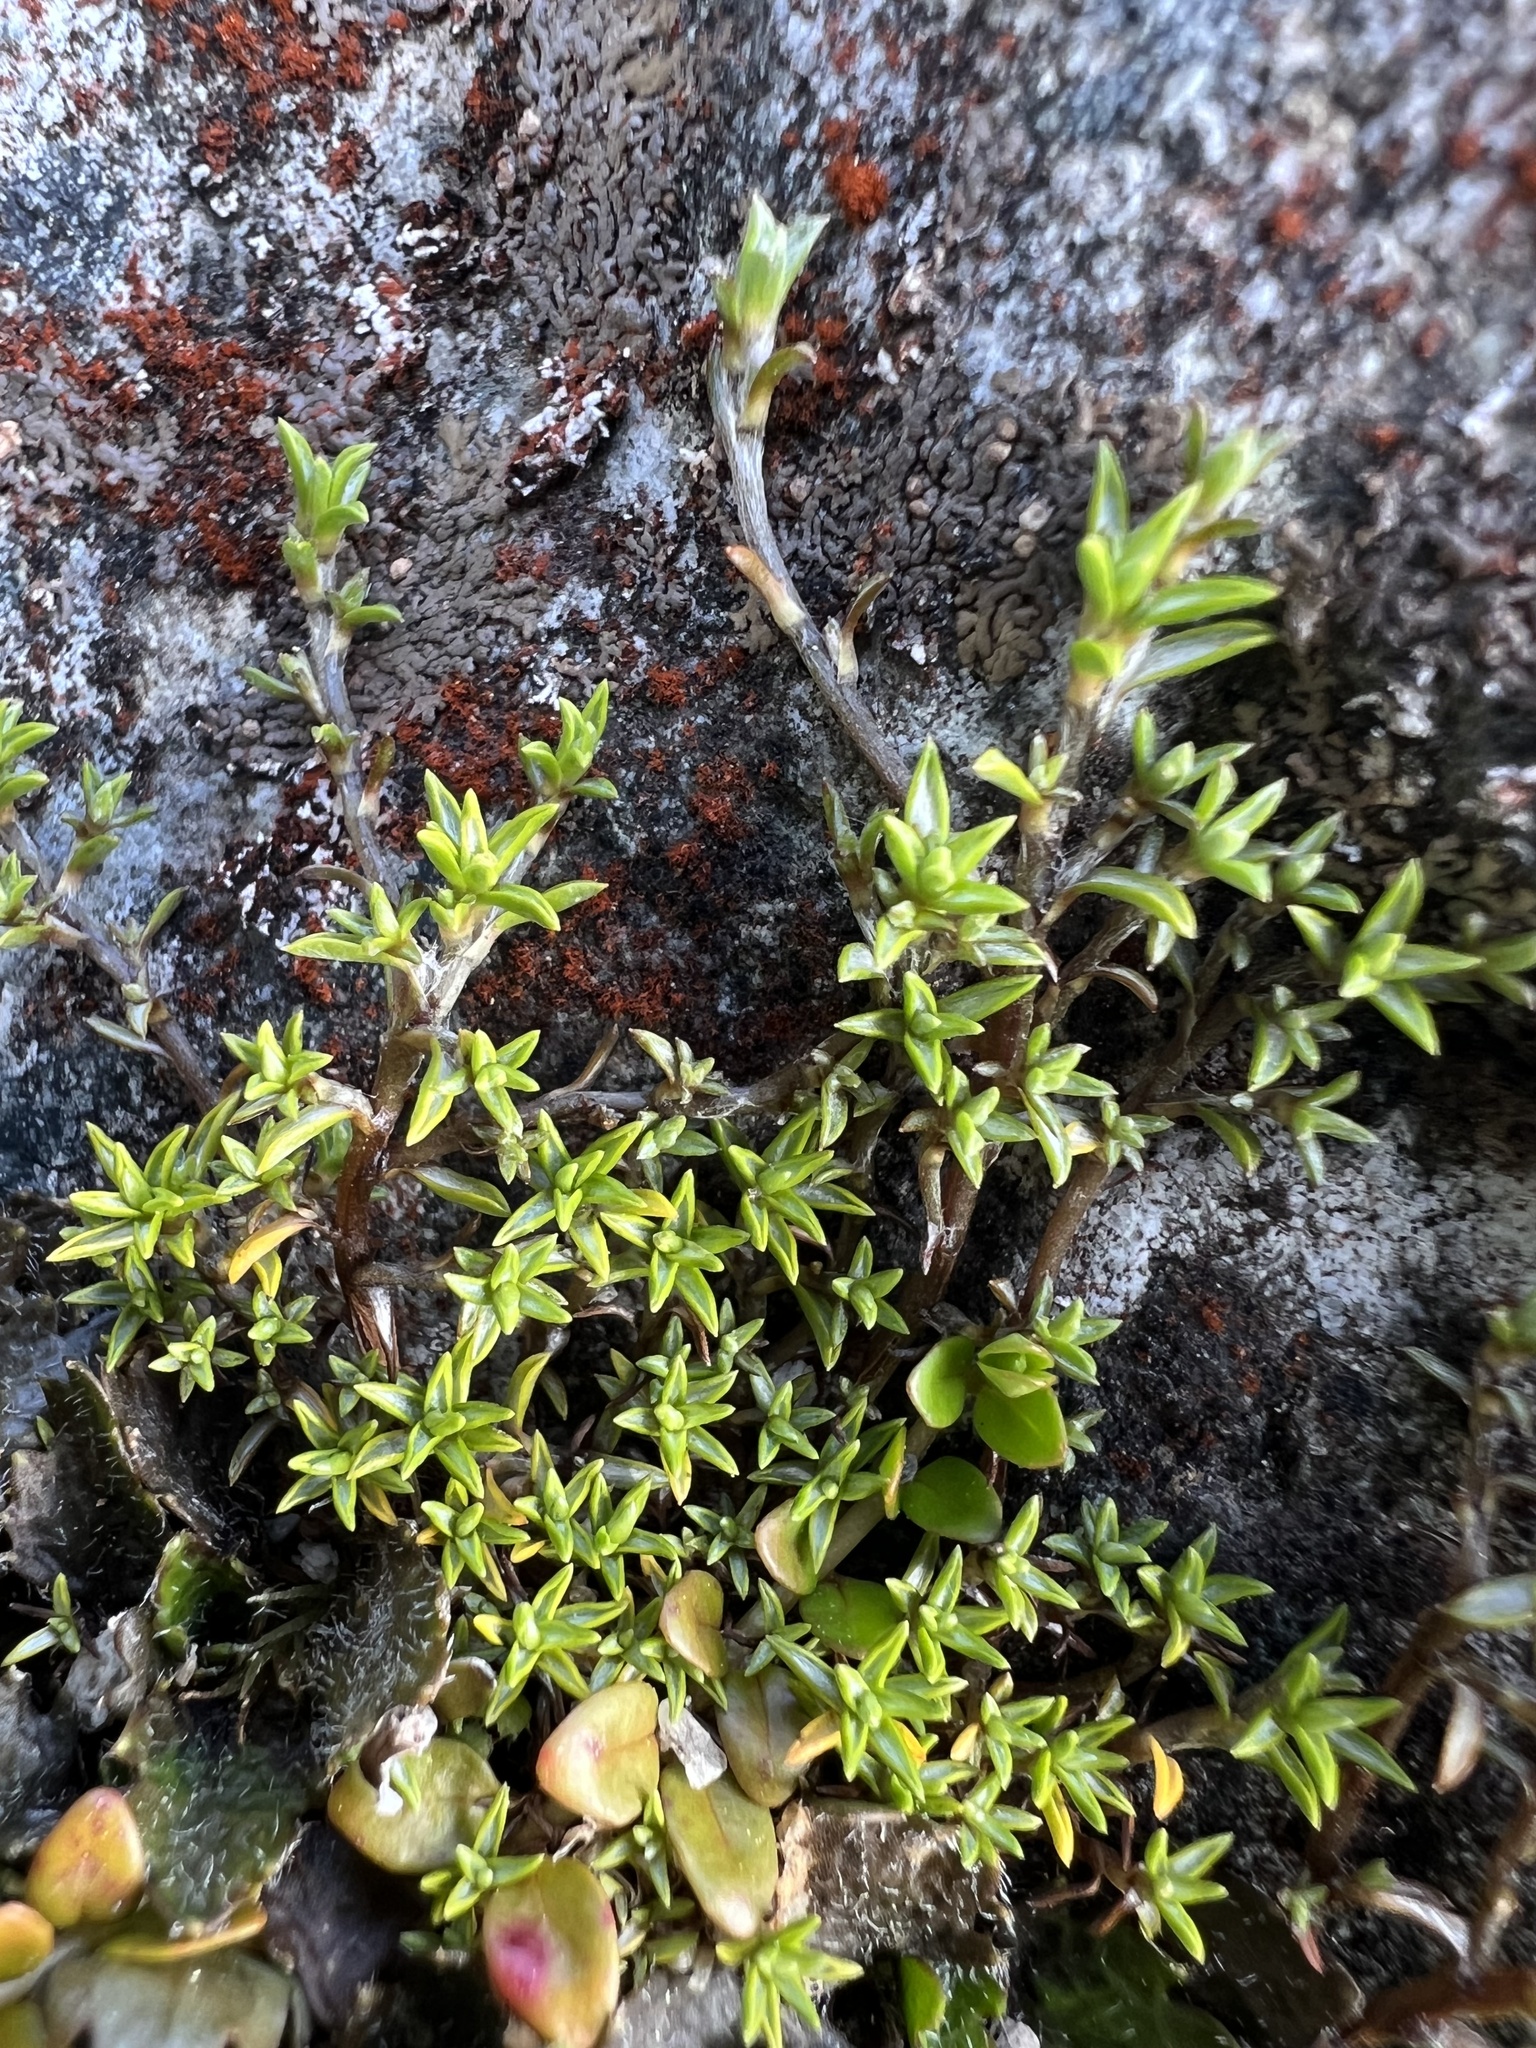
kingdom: Plantae
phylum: Tracheophyta
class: Magnoliopsida
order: Asterales
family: Asteraceae
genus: Raoulia
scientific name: Raoulia tenuicaulis
